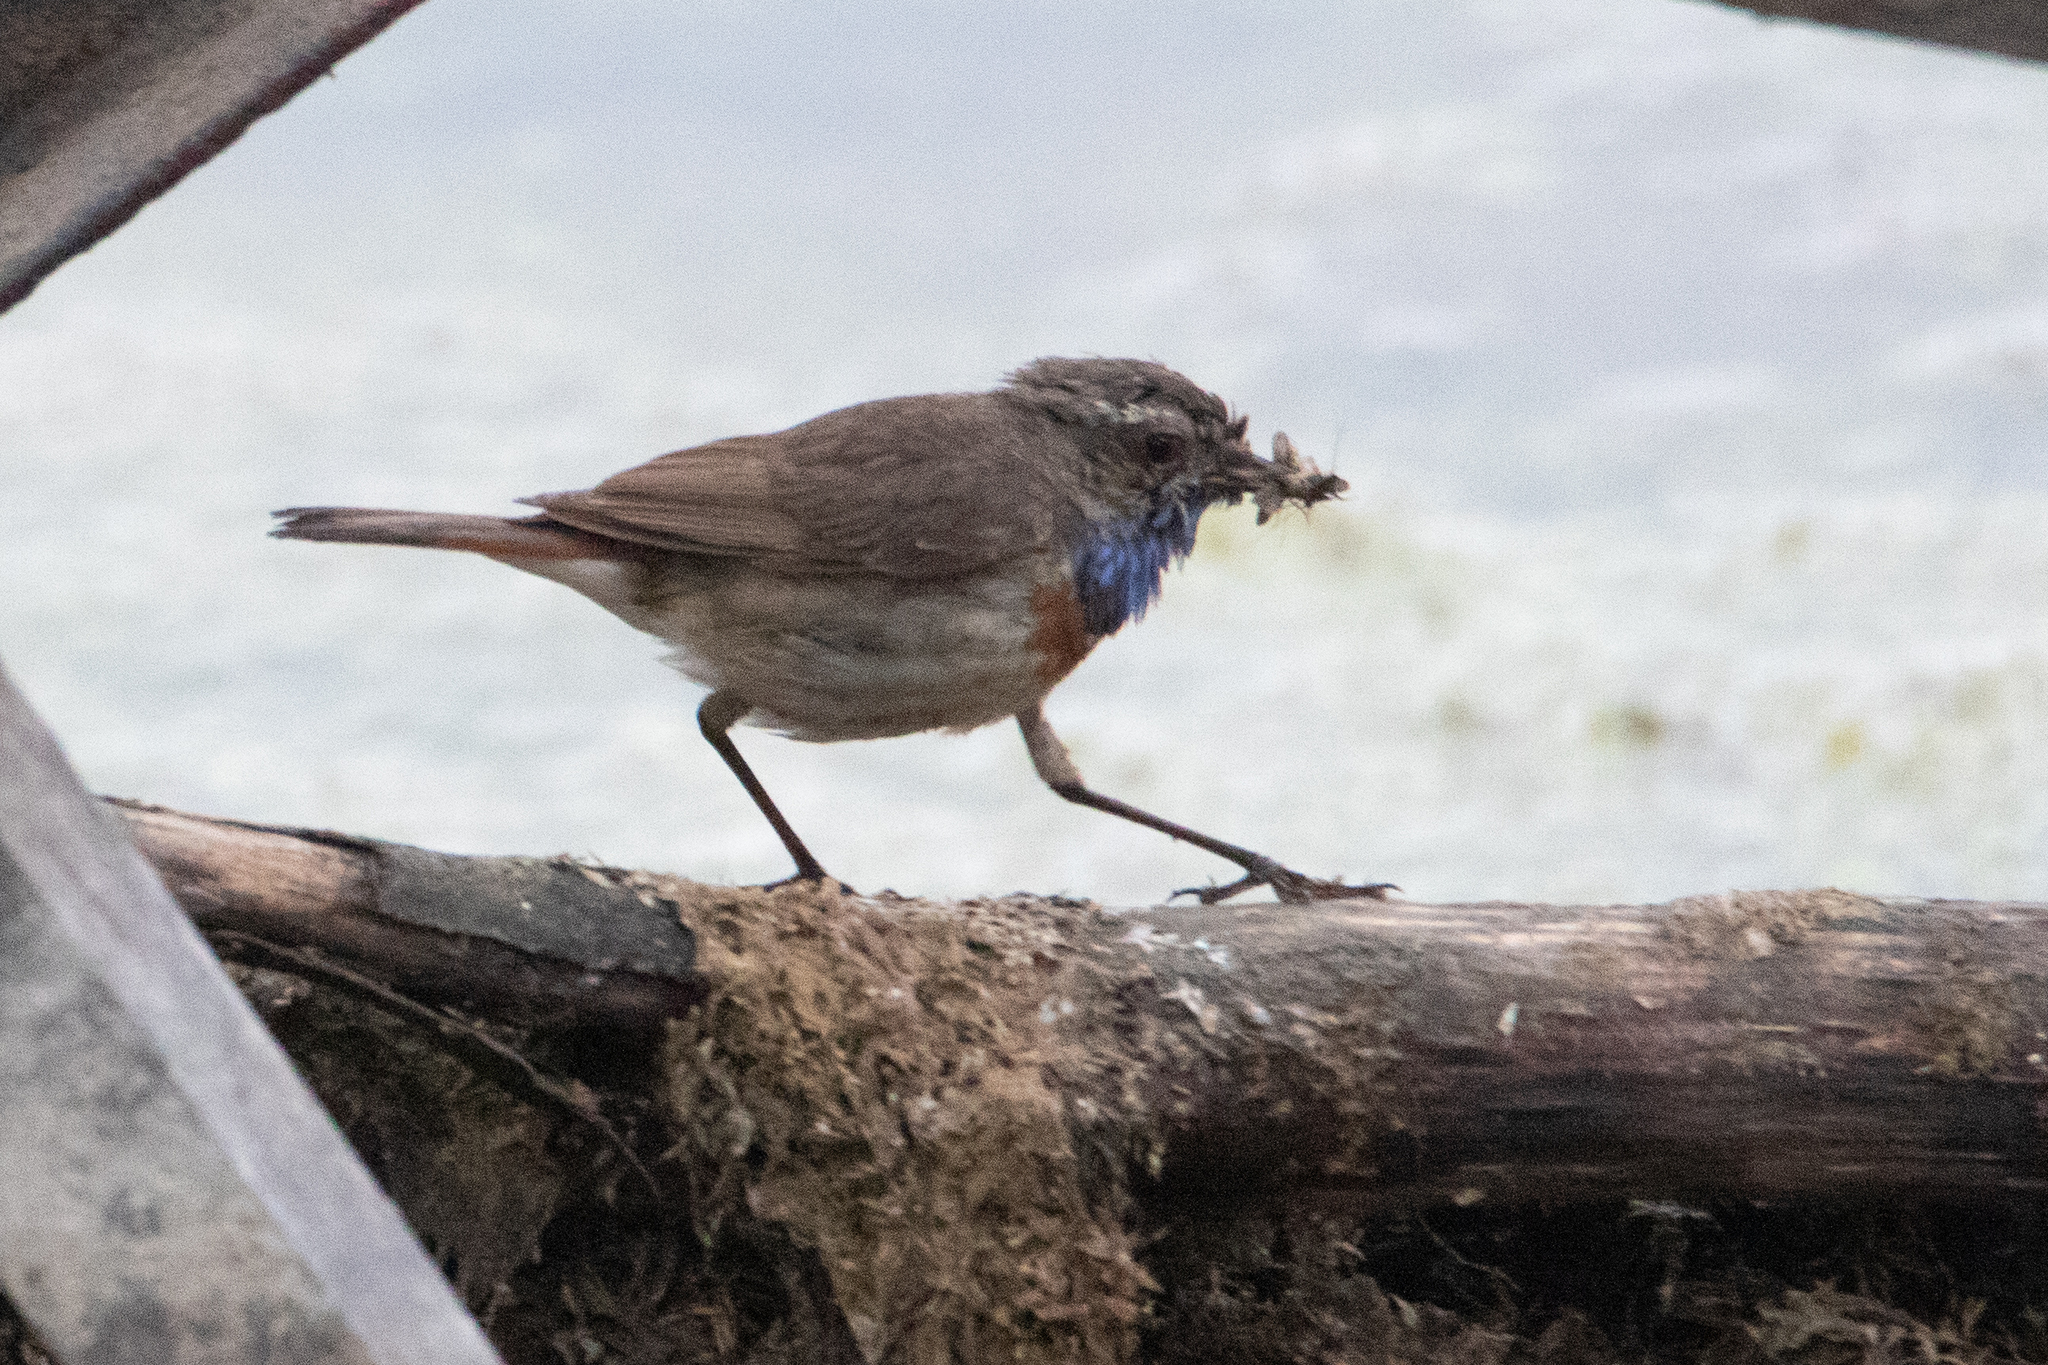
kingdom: Animalia
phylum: Chordata
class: Aves
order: Passeriformes
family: Muscicapidae
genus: Luscinia
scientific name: Luscinia svecica
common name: Bluethroat
